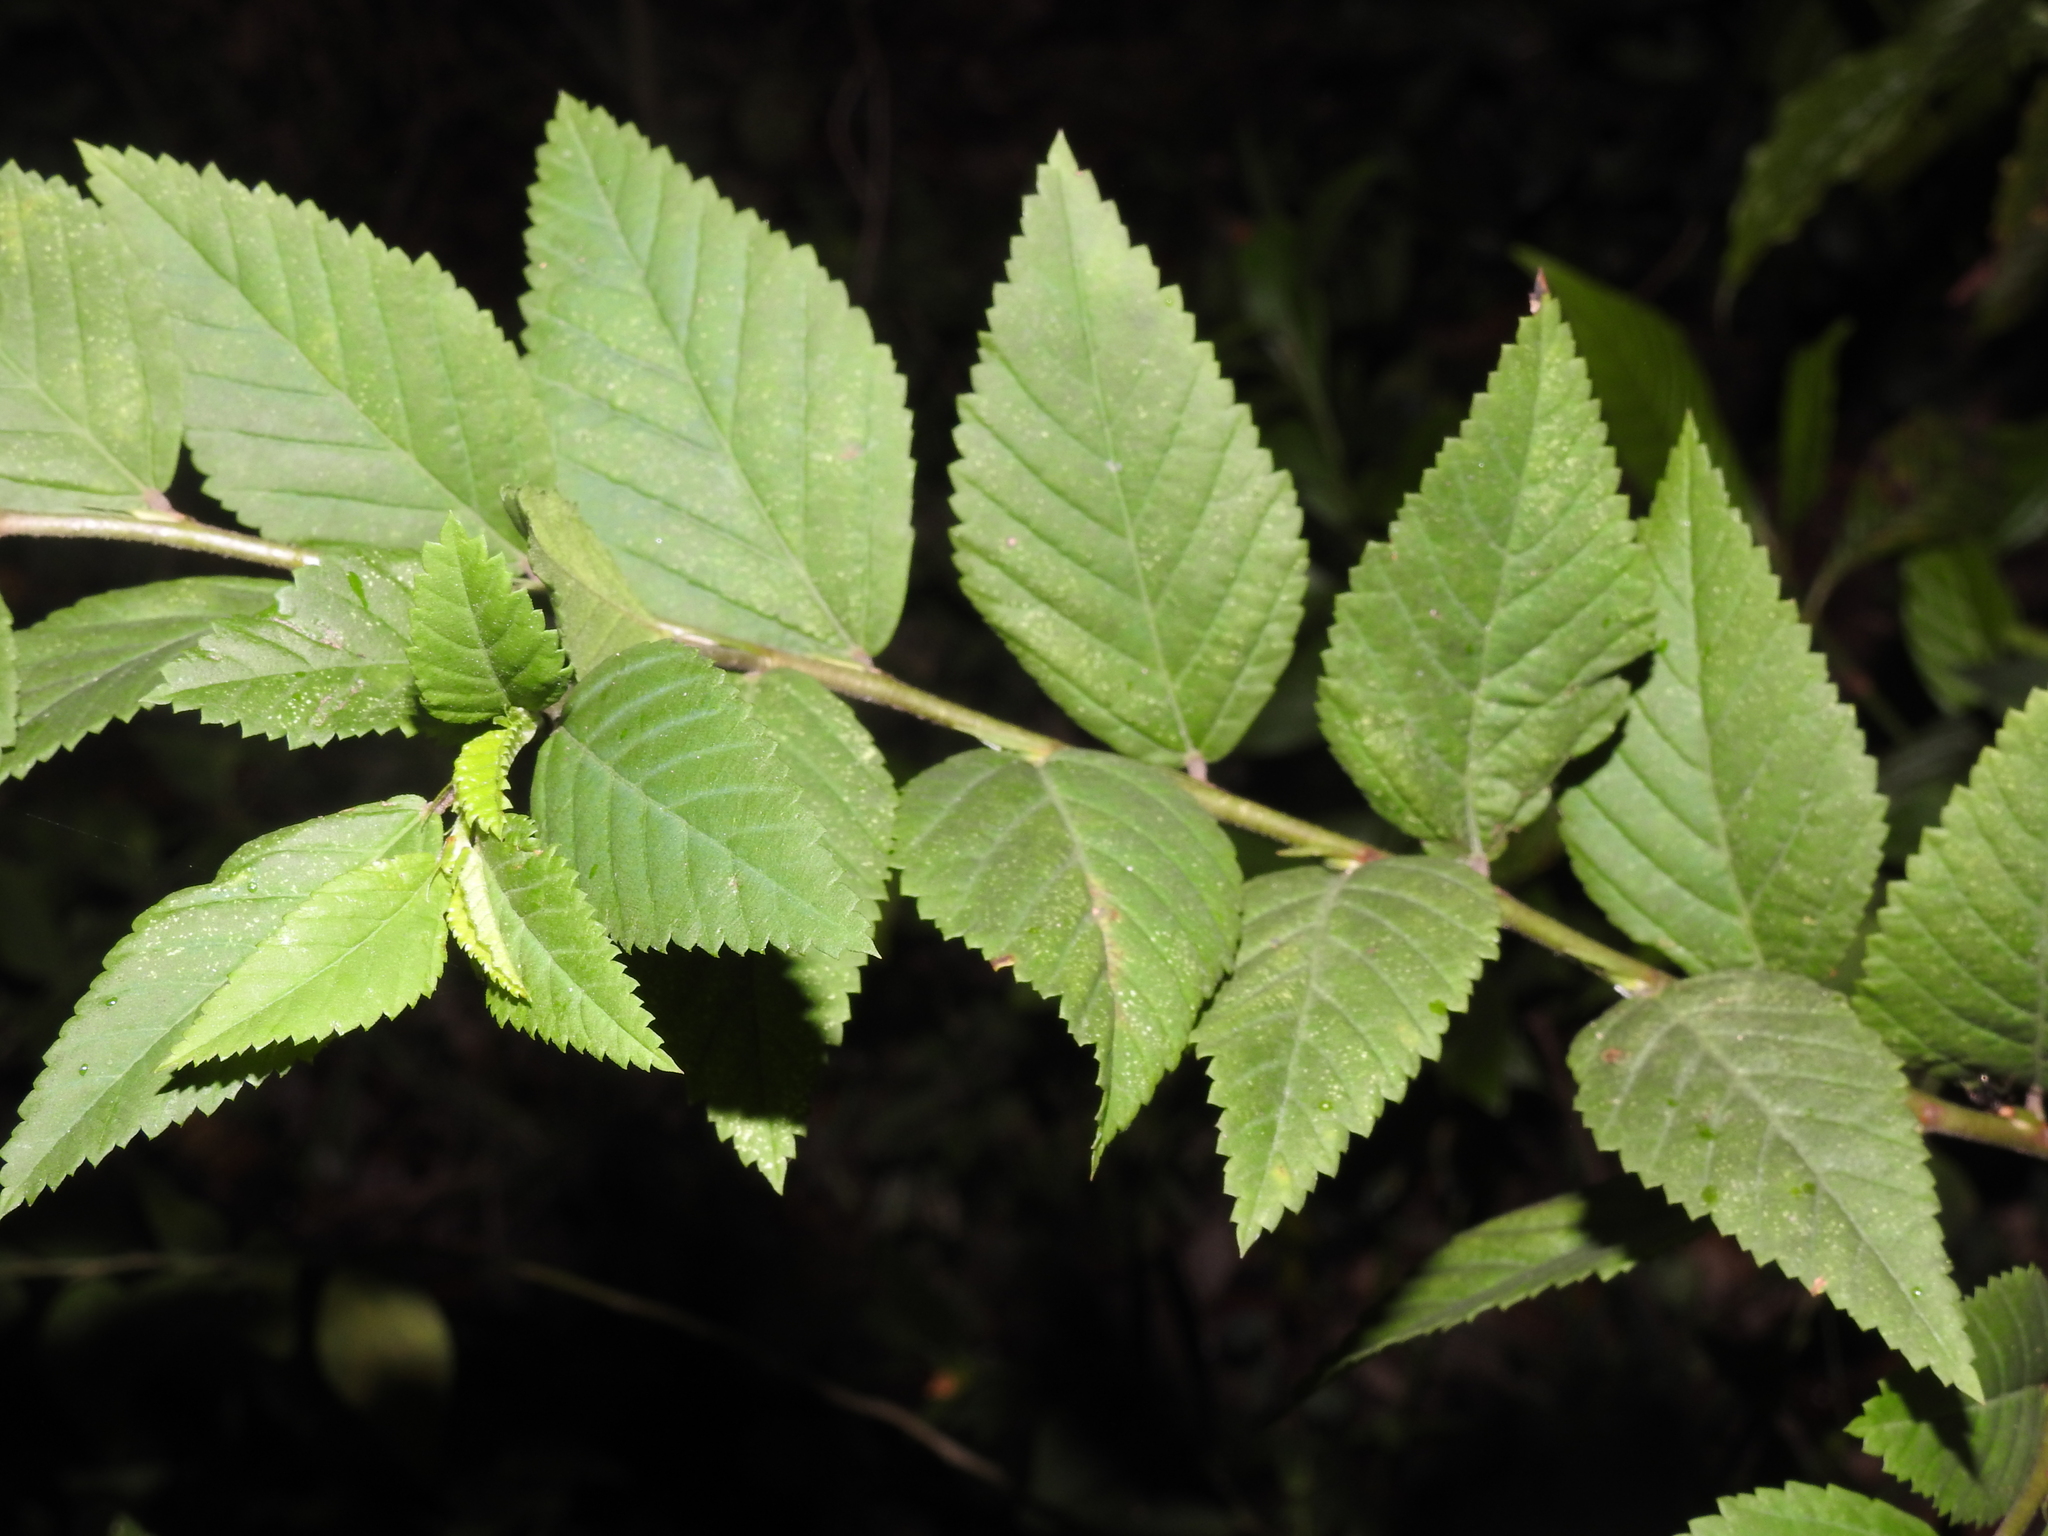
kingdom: Plantae
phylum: Tracheophyta
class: Magnoliopsida
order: Malvales
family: Malvaceae
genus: Sida
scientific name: Sida ulmifolia
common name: Broom weed
